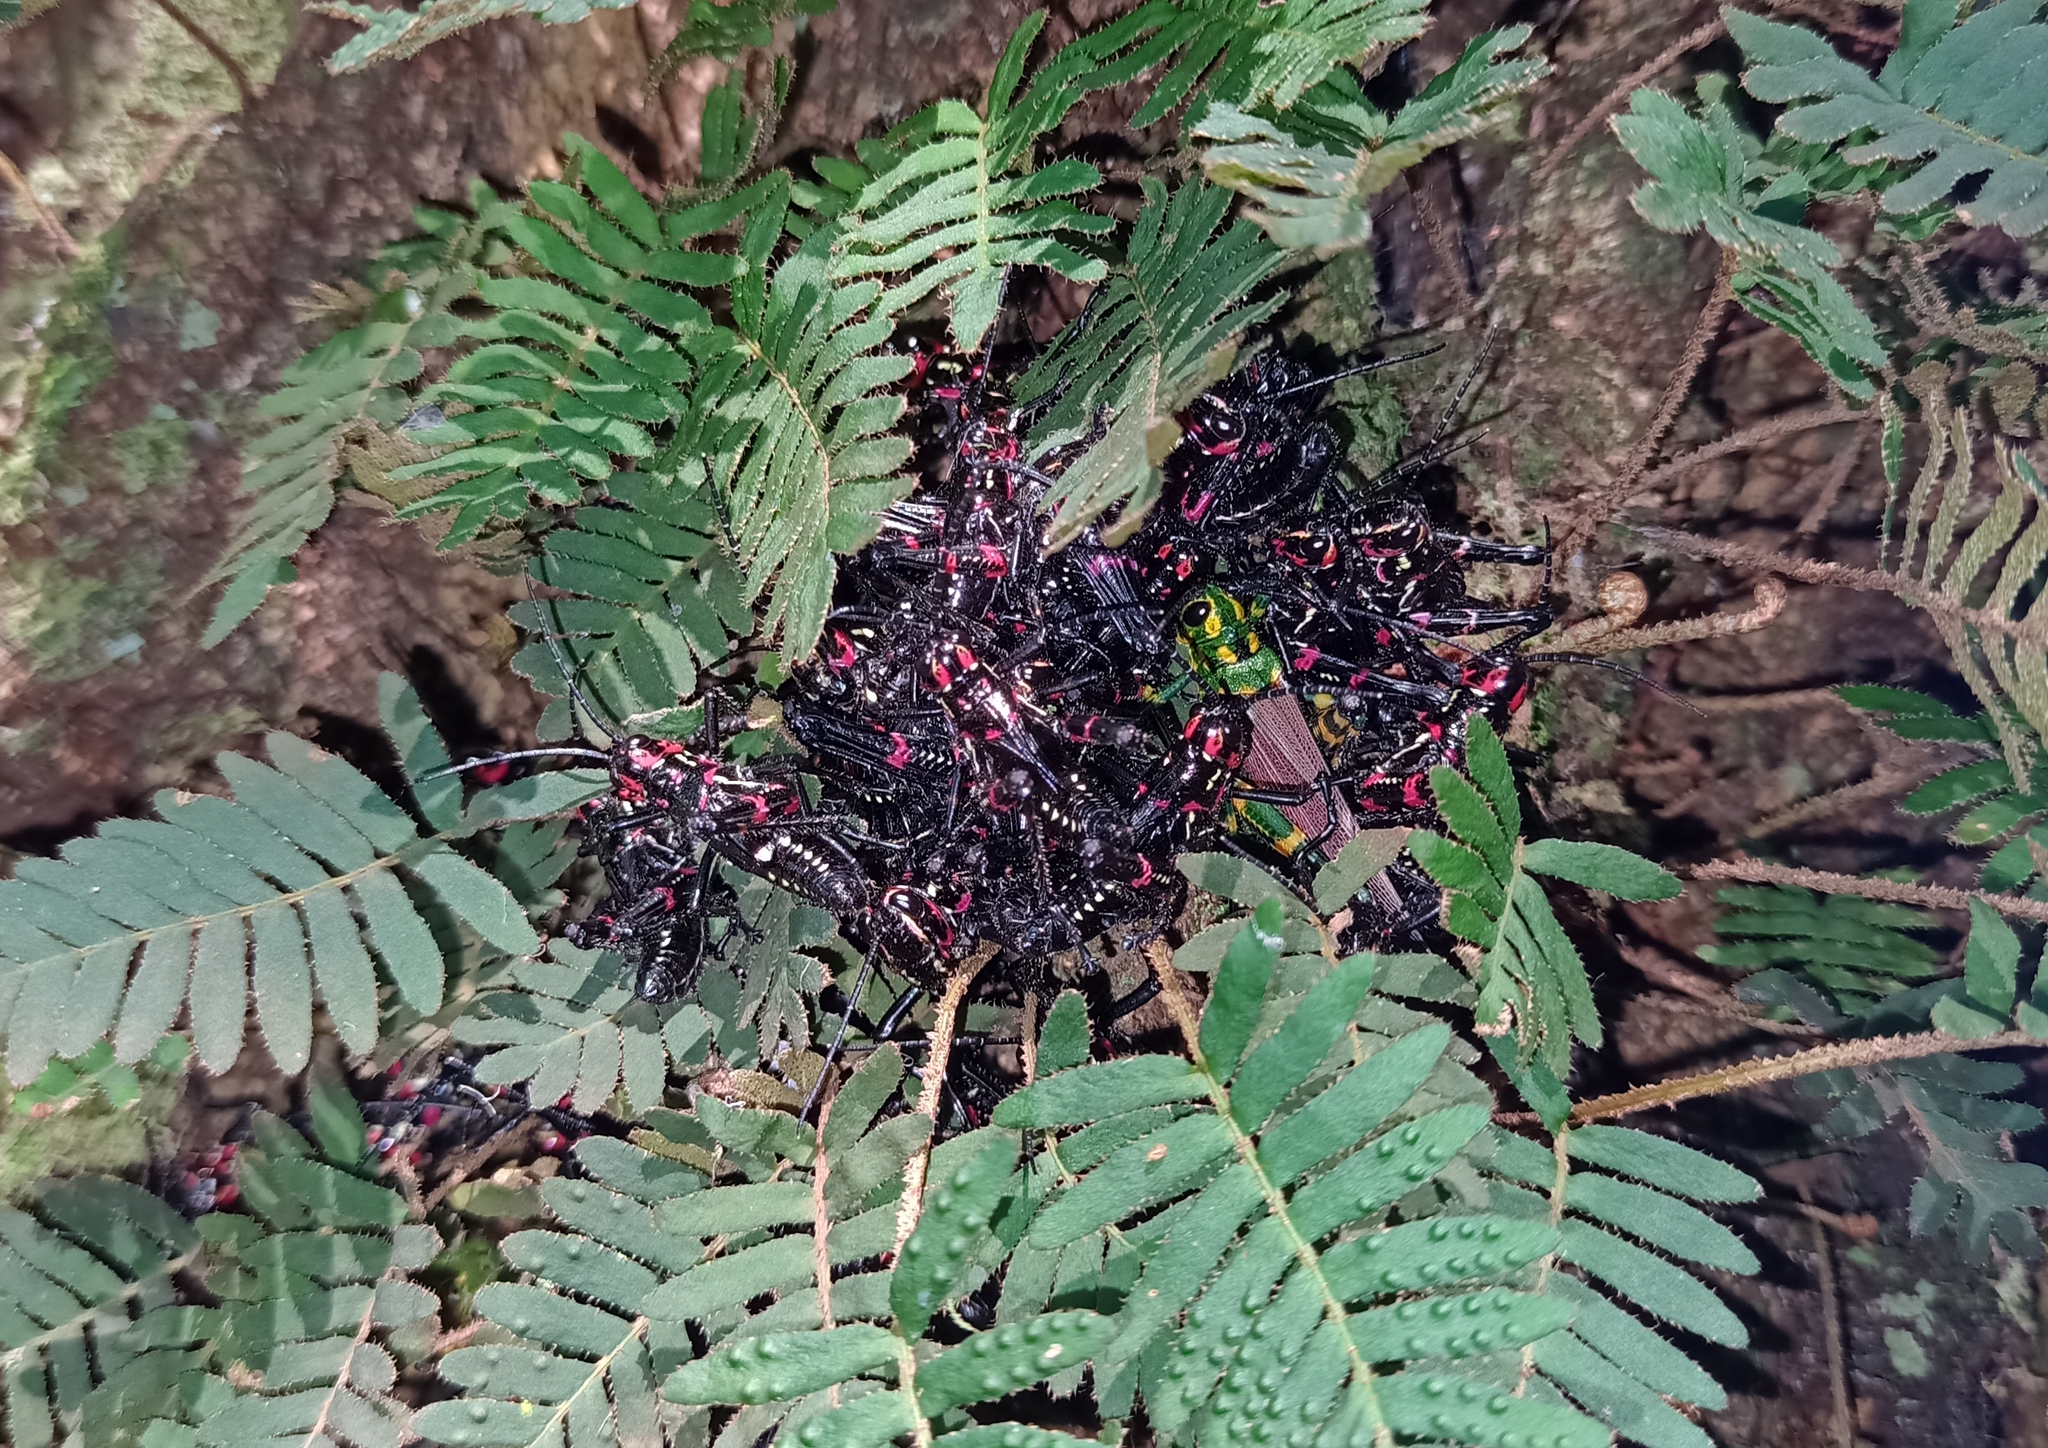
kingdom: Animalia
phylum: Arthropoda
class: Insecta
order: Orthoptera
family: Romaleidae
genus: Chromacris
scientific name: Chromacris speciosa
